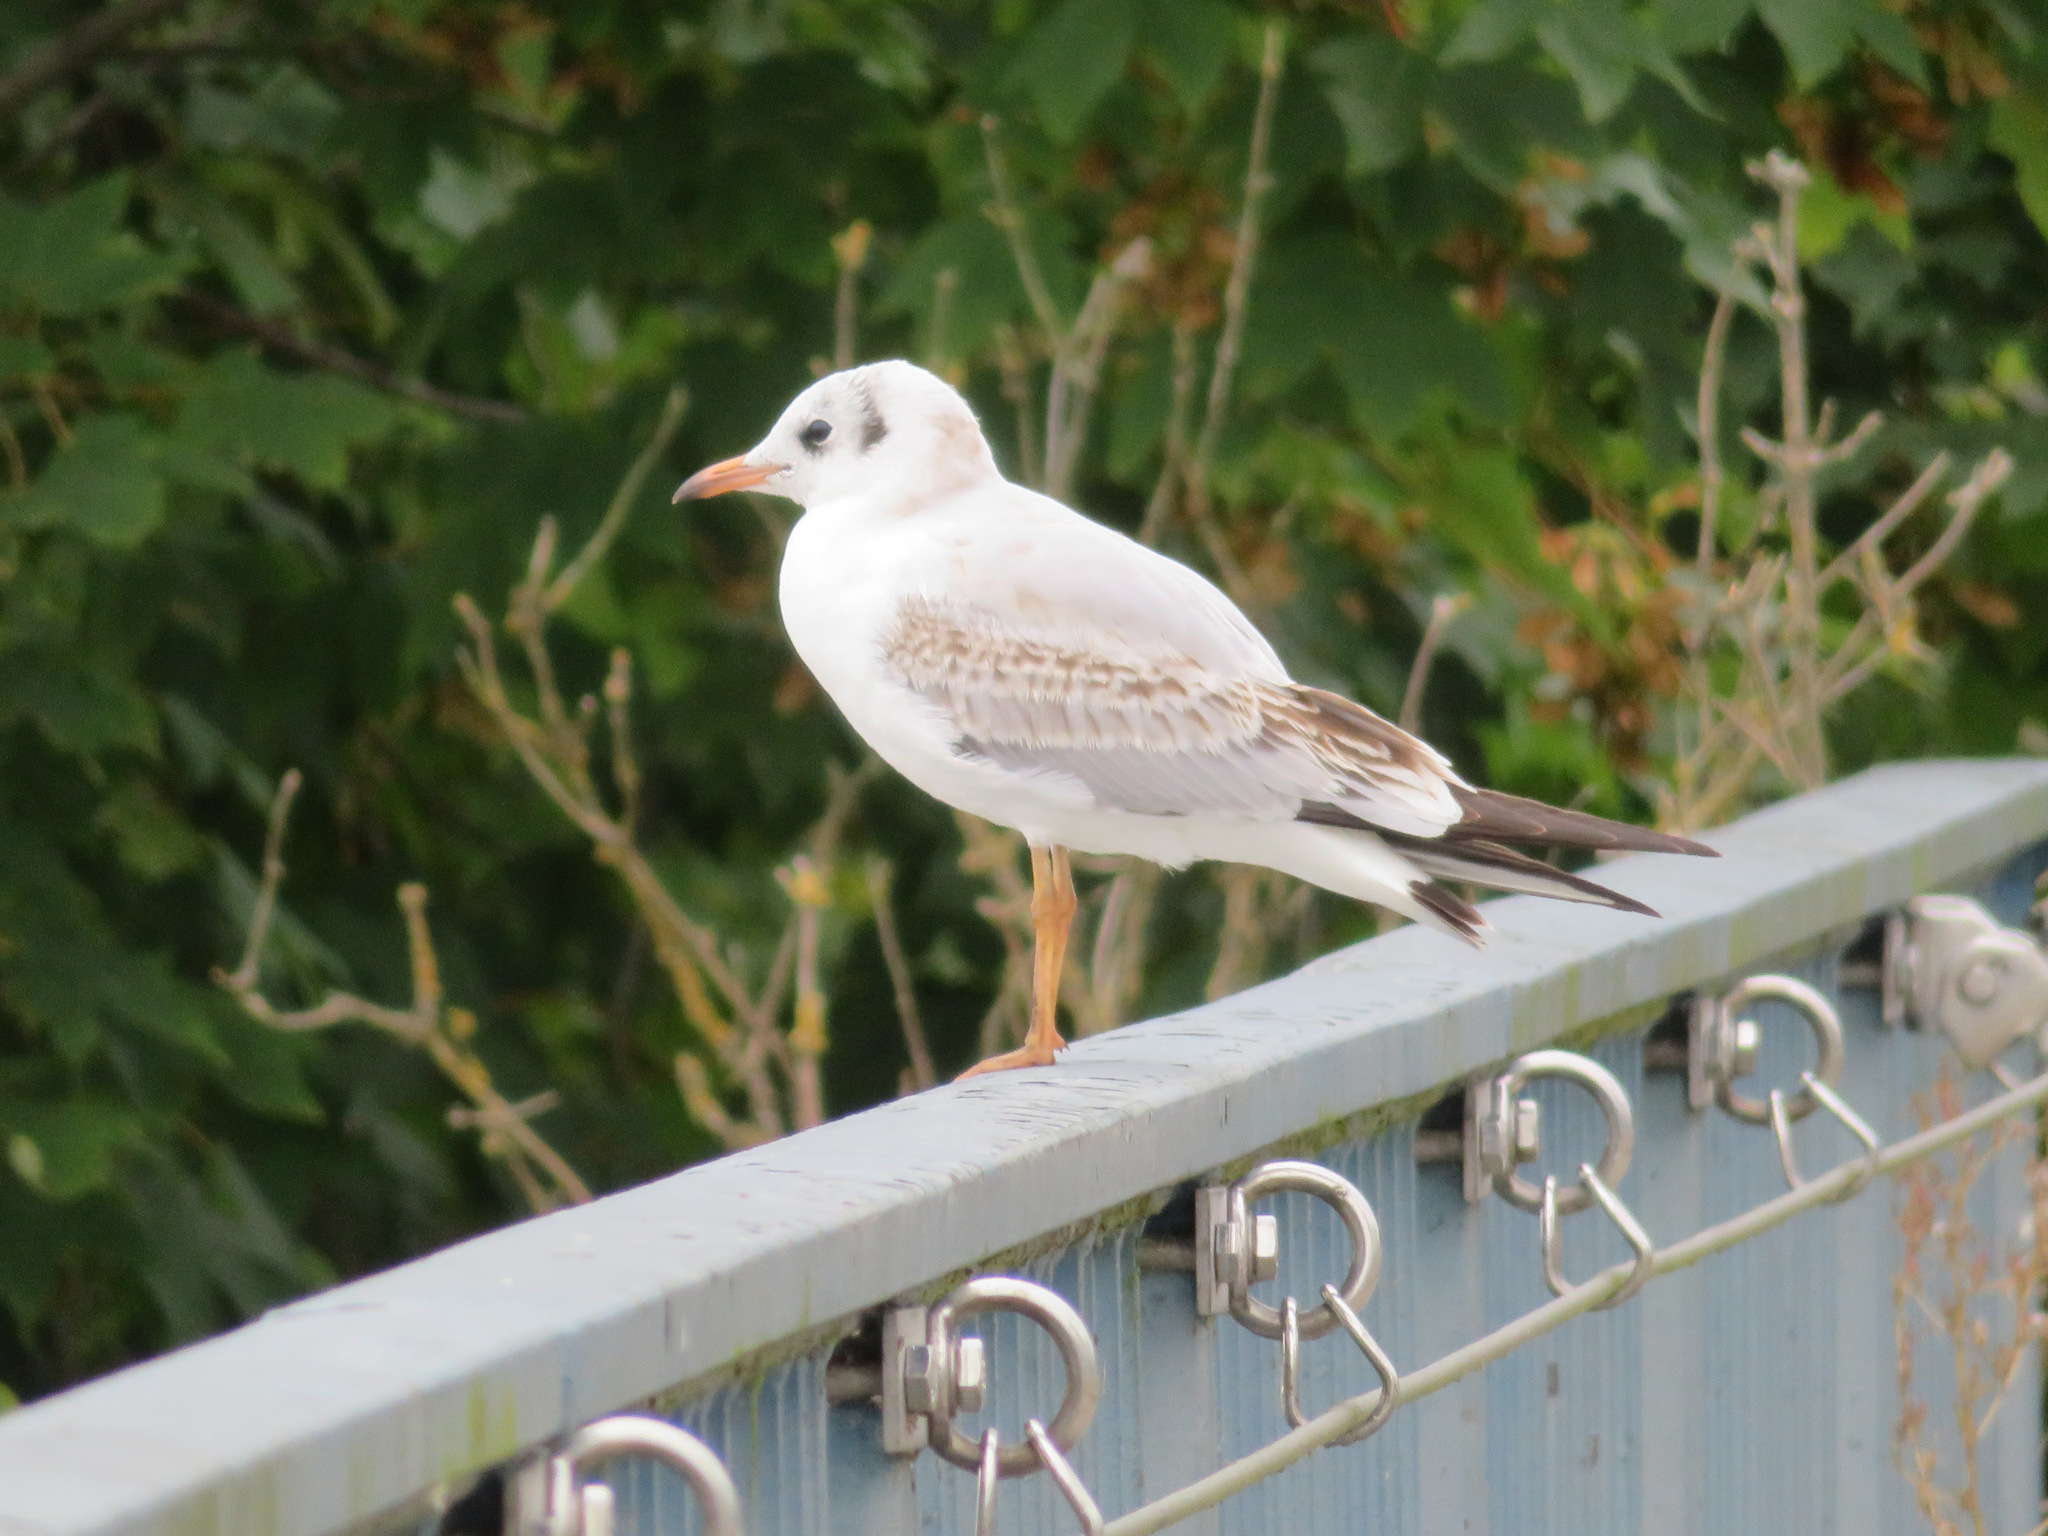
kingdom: Animalia
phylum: Chordata
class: Aves
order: Charadriiformes
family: Laridae
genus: Chroicocephalus
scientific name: Chroicocephalus ridibundus
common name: Black-headed gull
